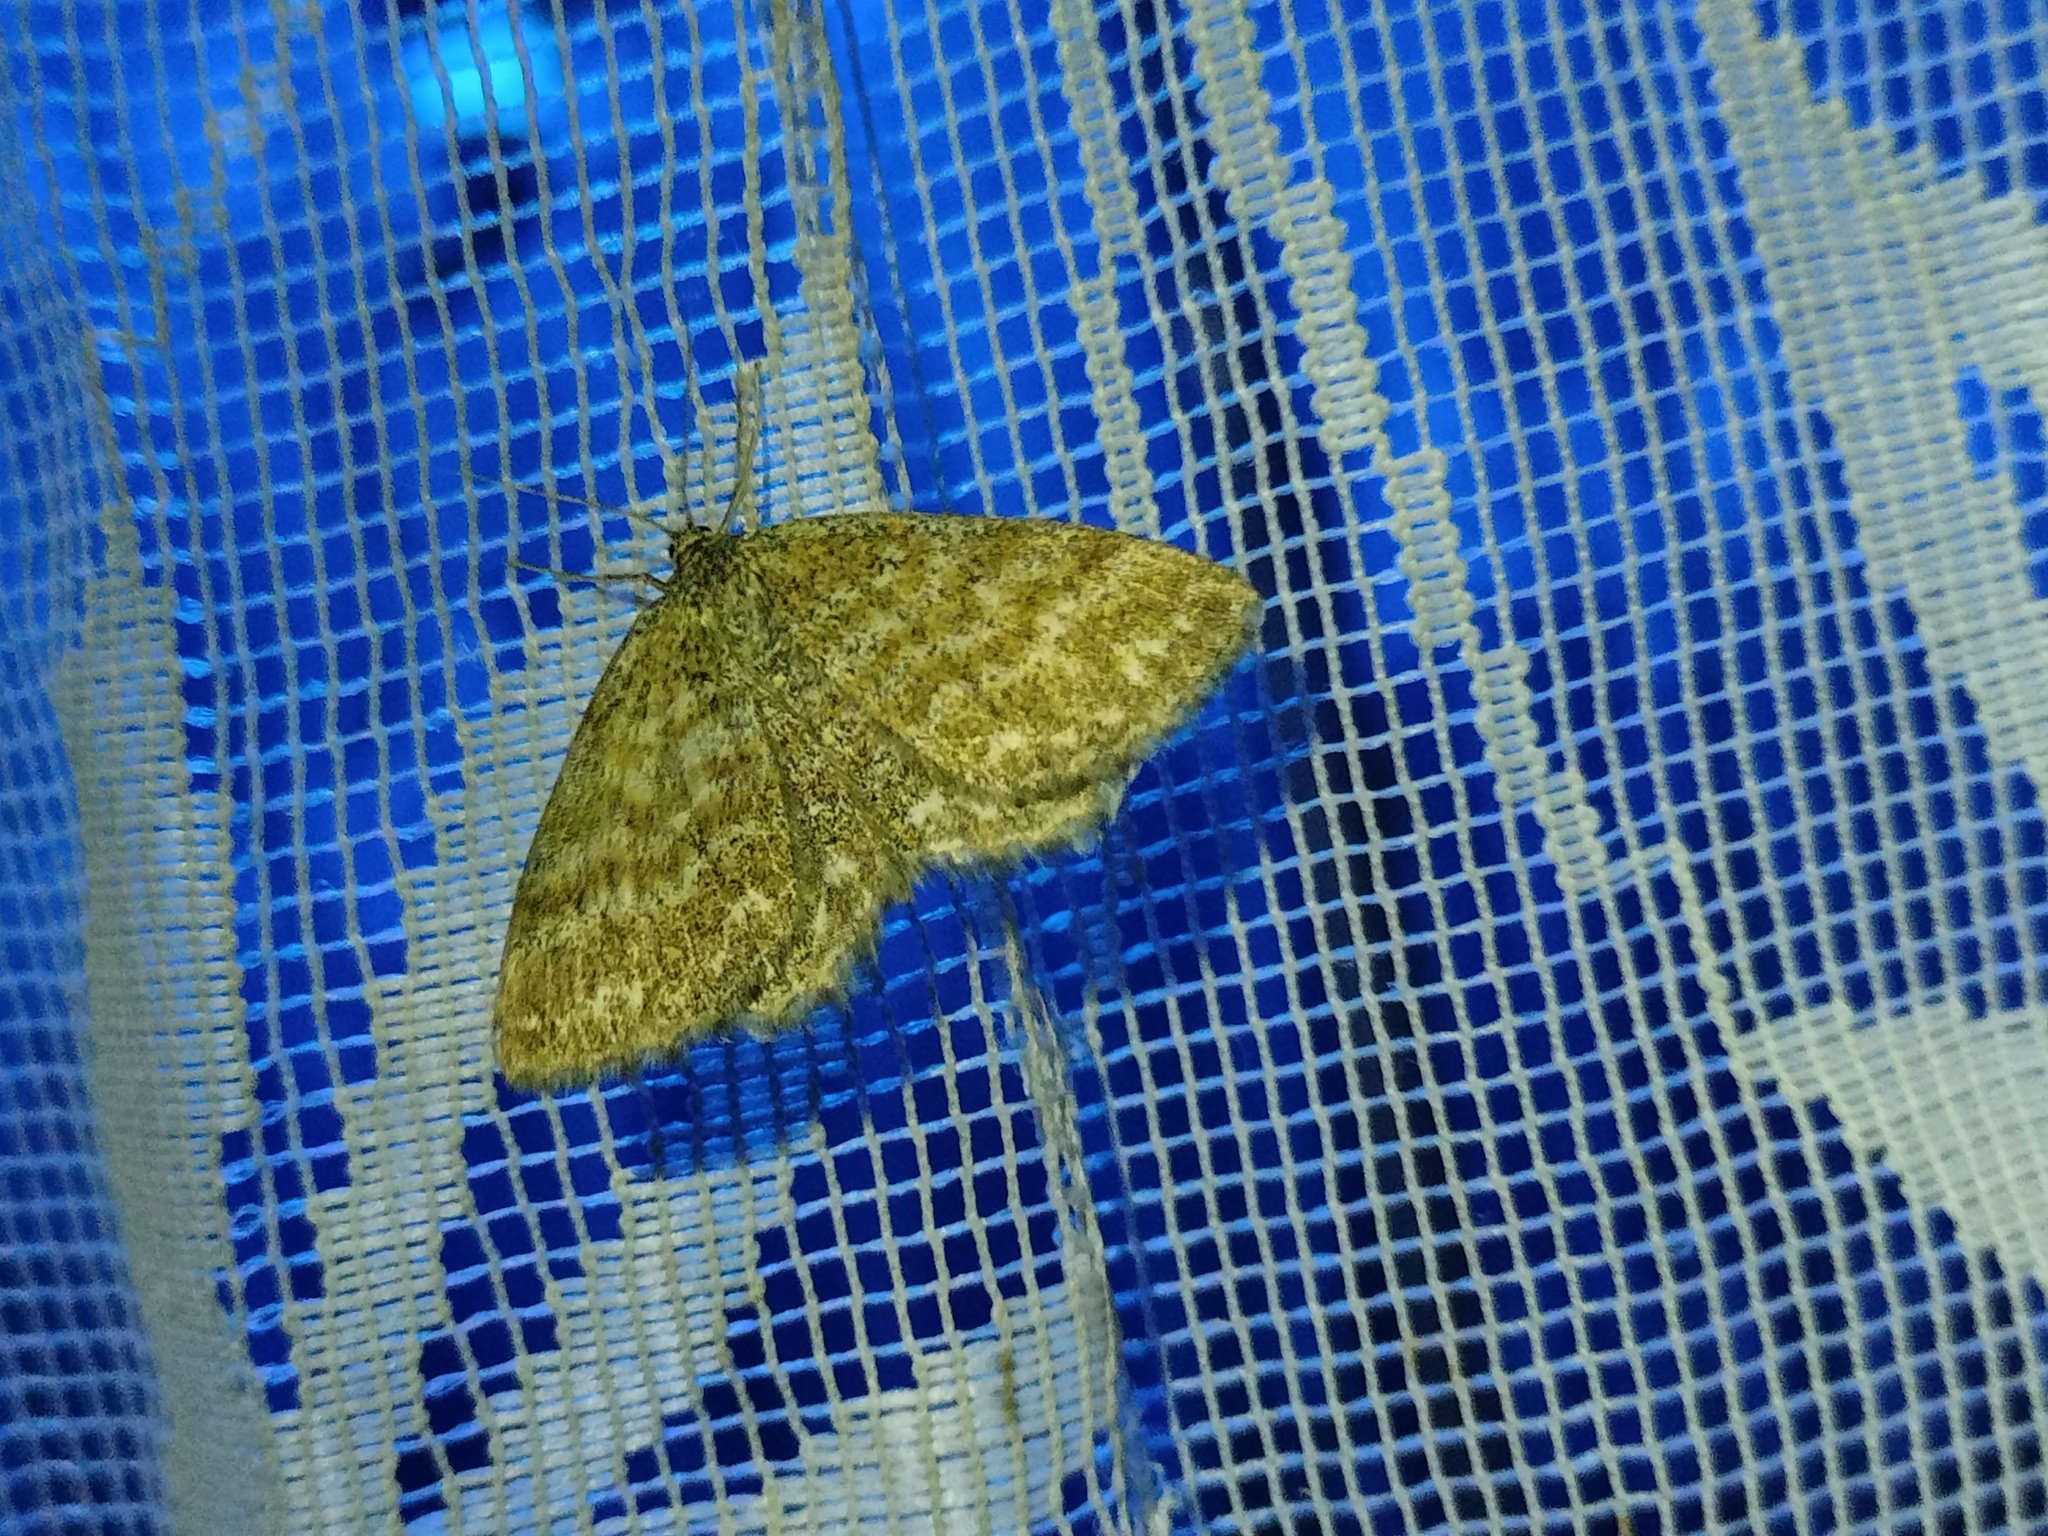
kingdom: Animalia
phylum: Arthropoda
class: Insecta
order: Lepidoptera
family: Geometridae
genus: Scopula
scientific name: Scopula immorata
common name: Lewes wave
